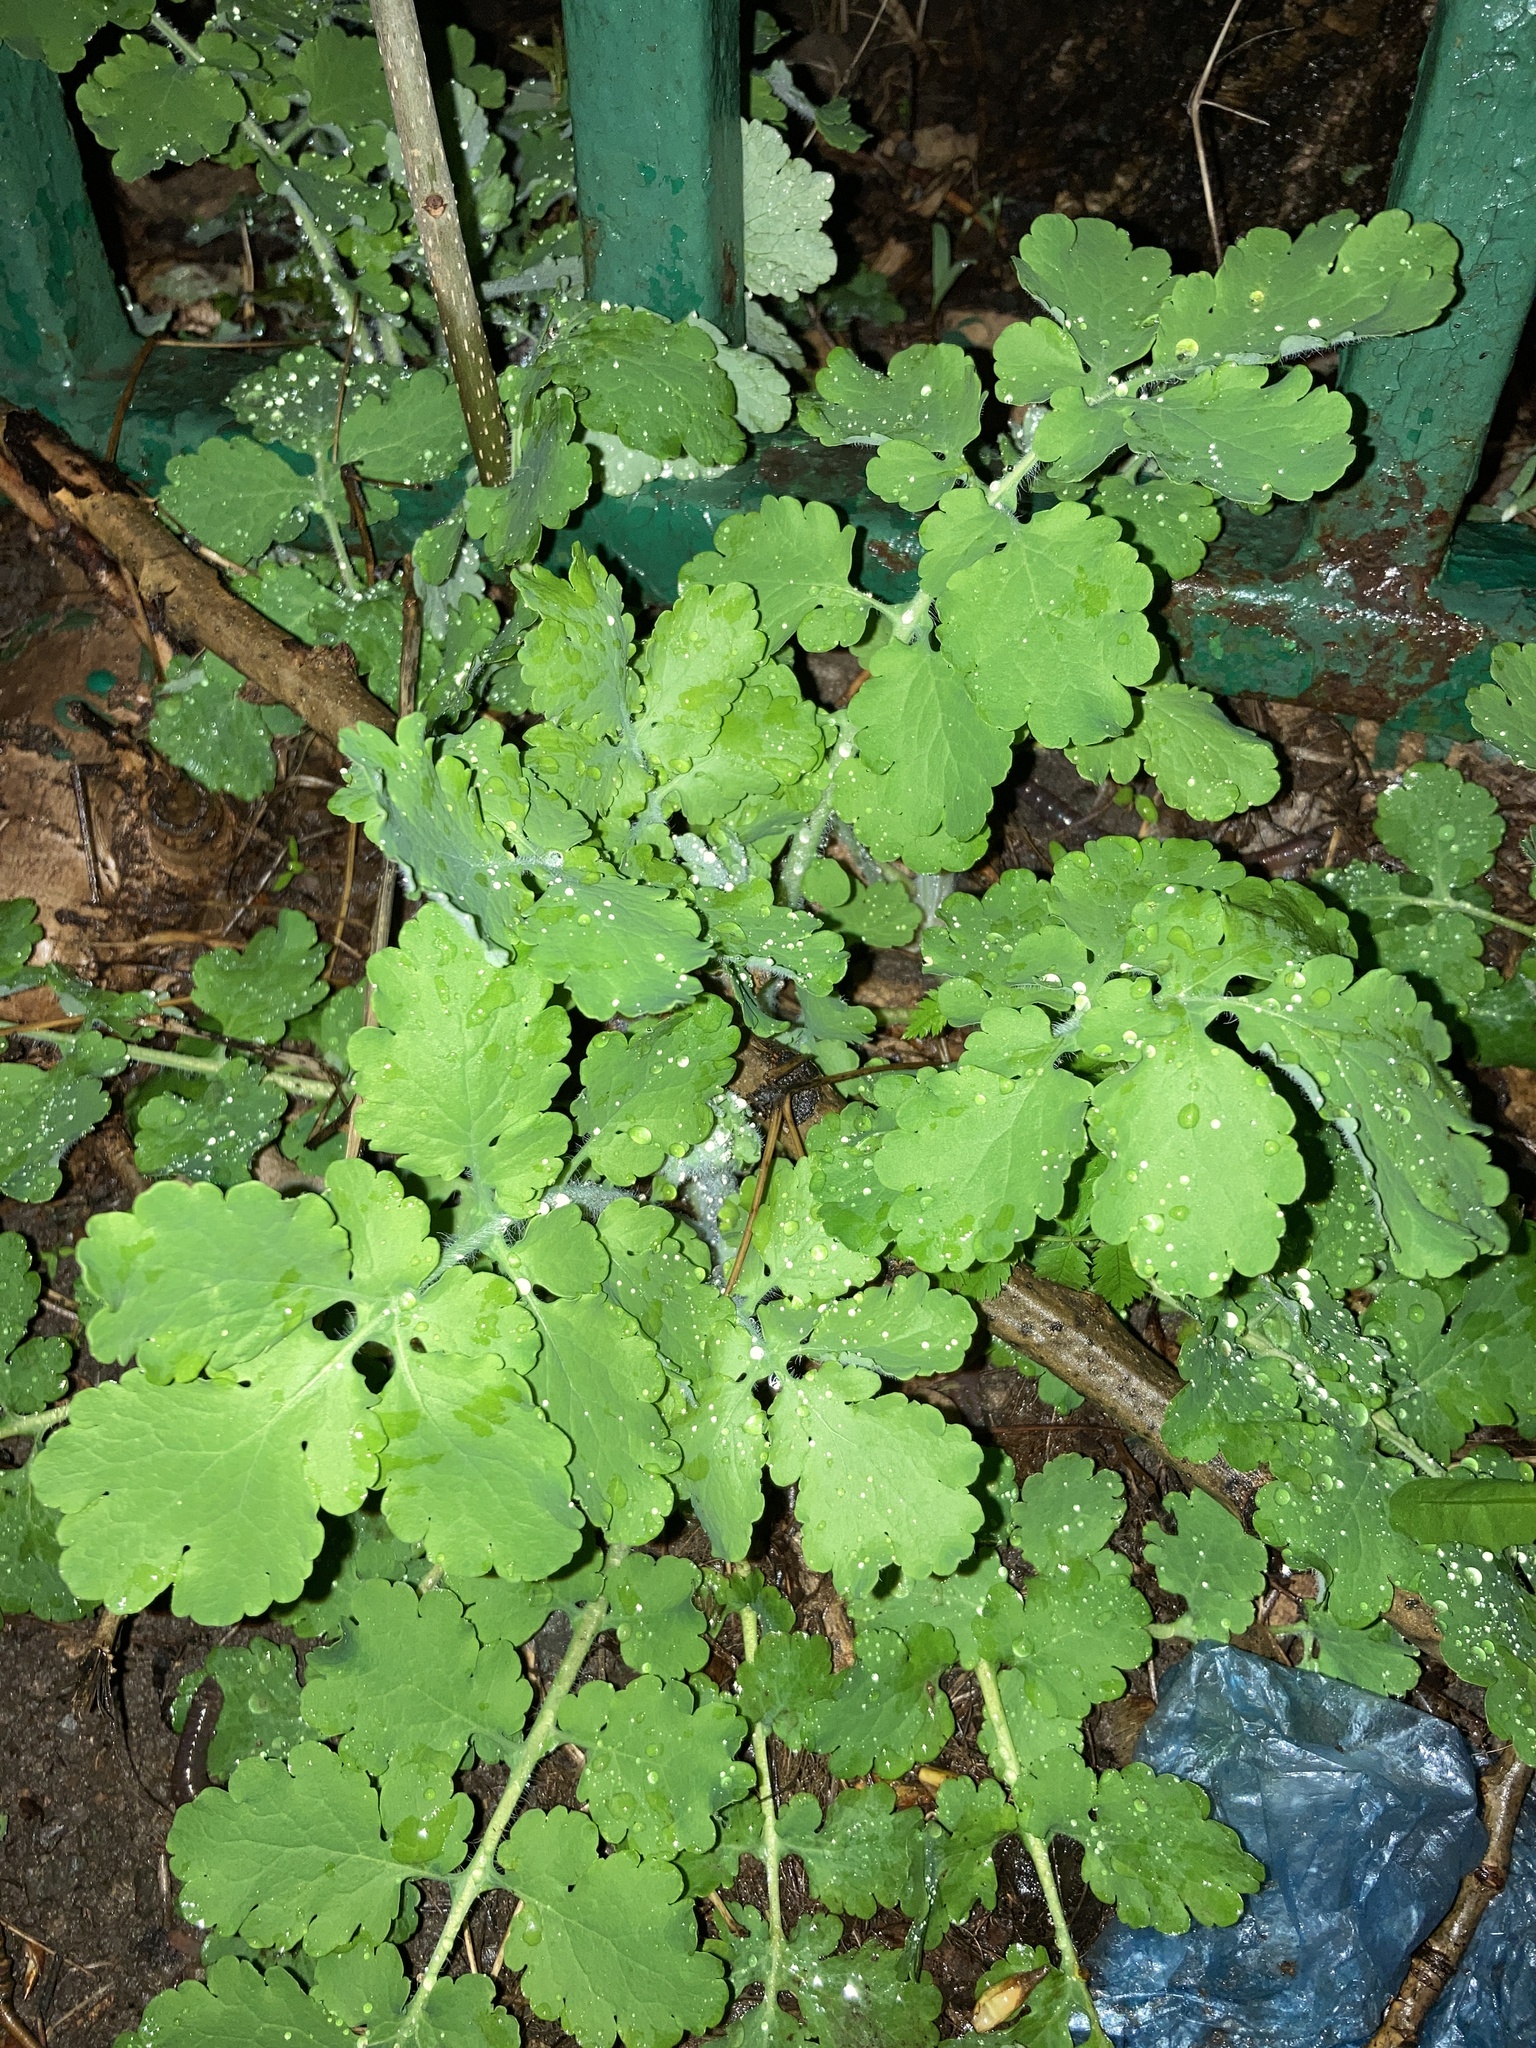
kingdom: Plantae
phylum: Tracheophyta
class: Magnoliopsida
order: Ranunculales
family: Papaveraceae
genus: Chelidonium
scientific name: Chelidonium majus
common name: Greater celandine
